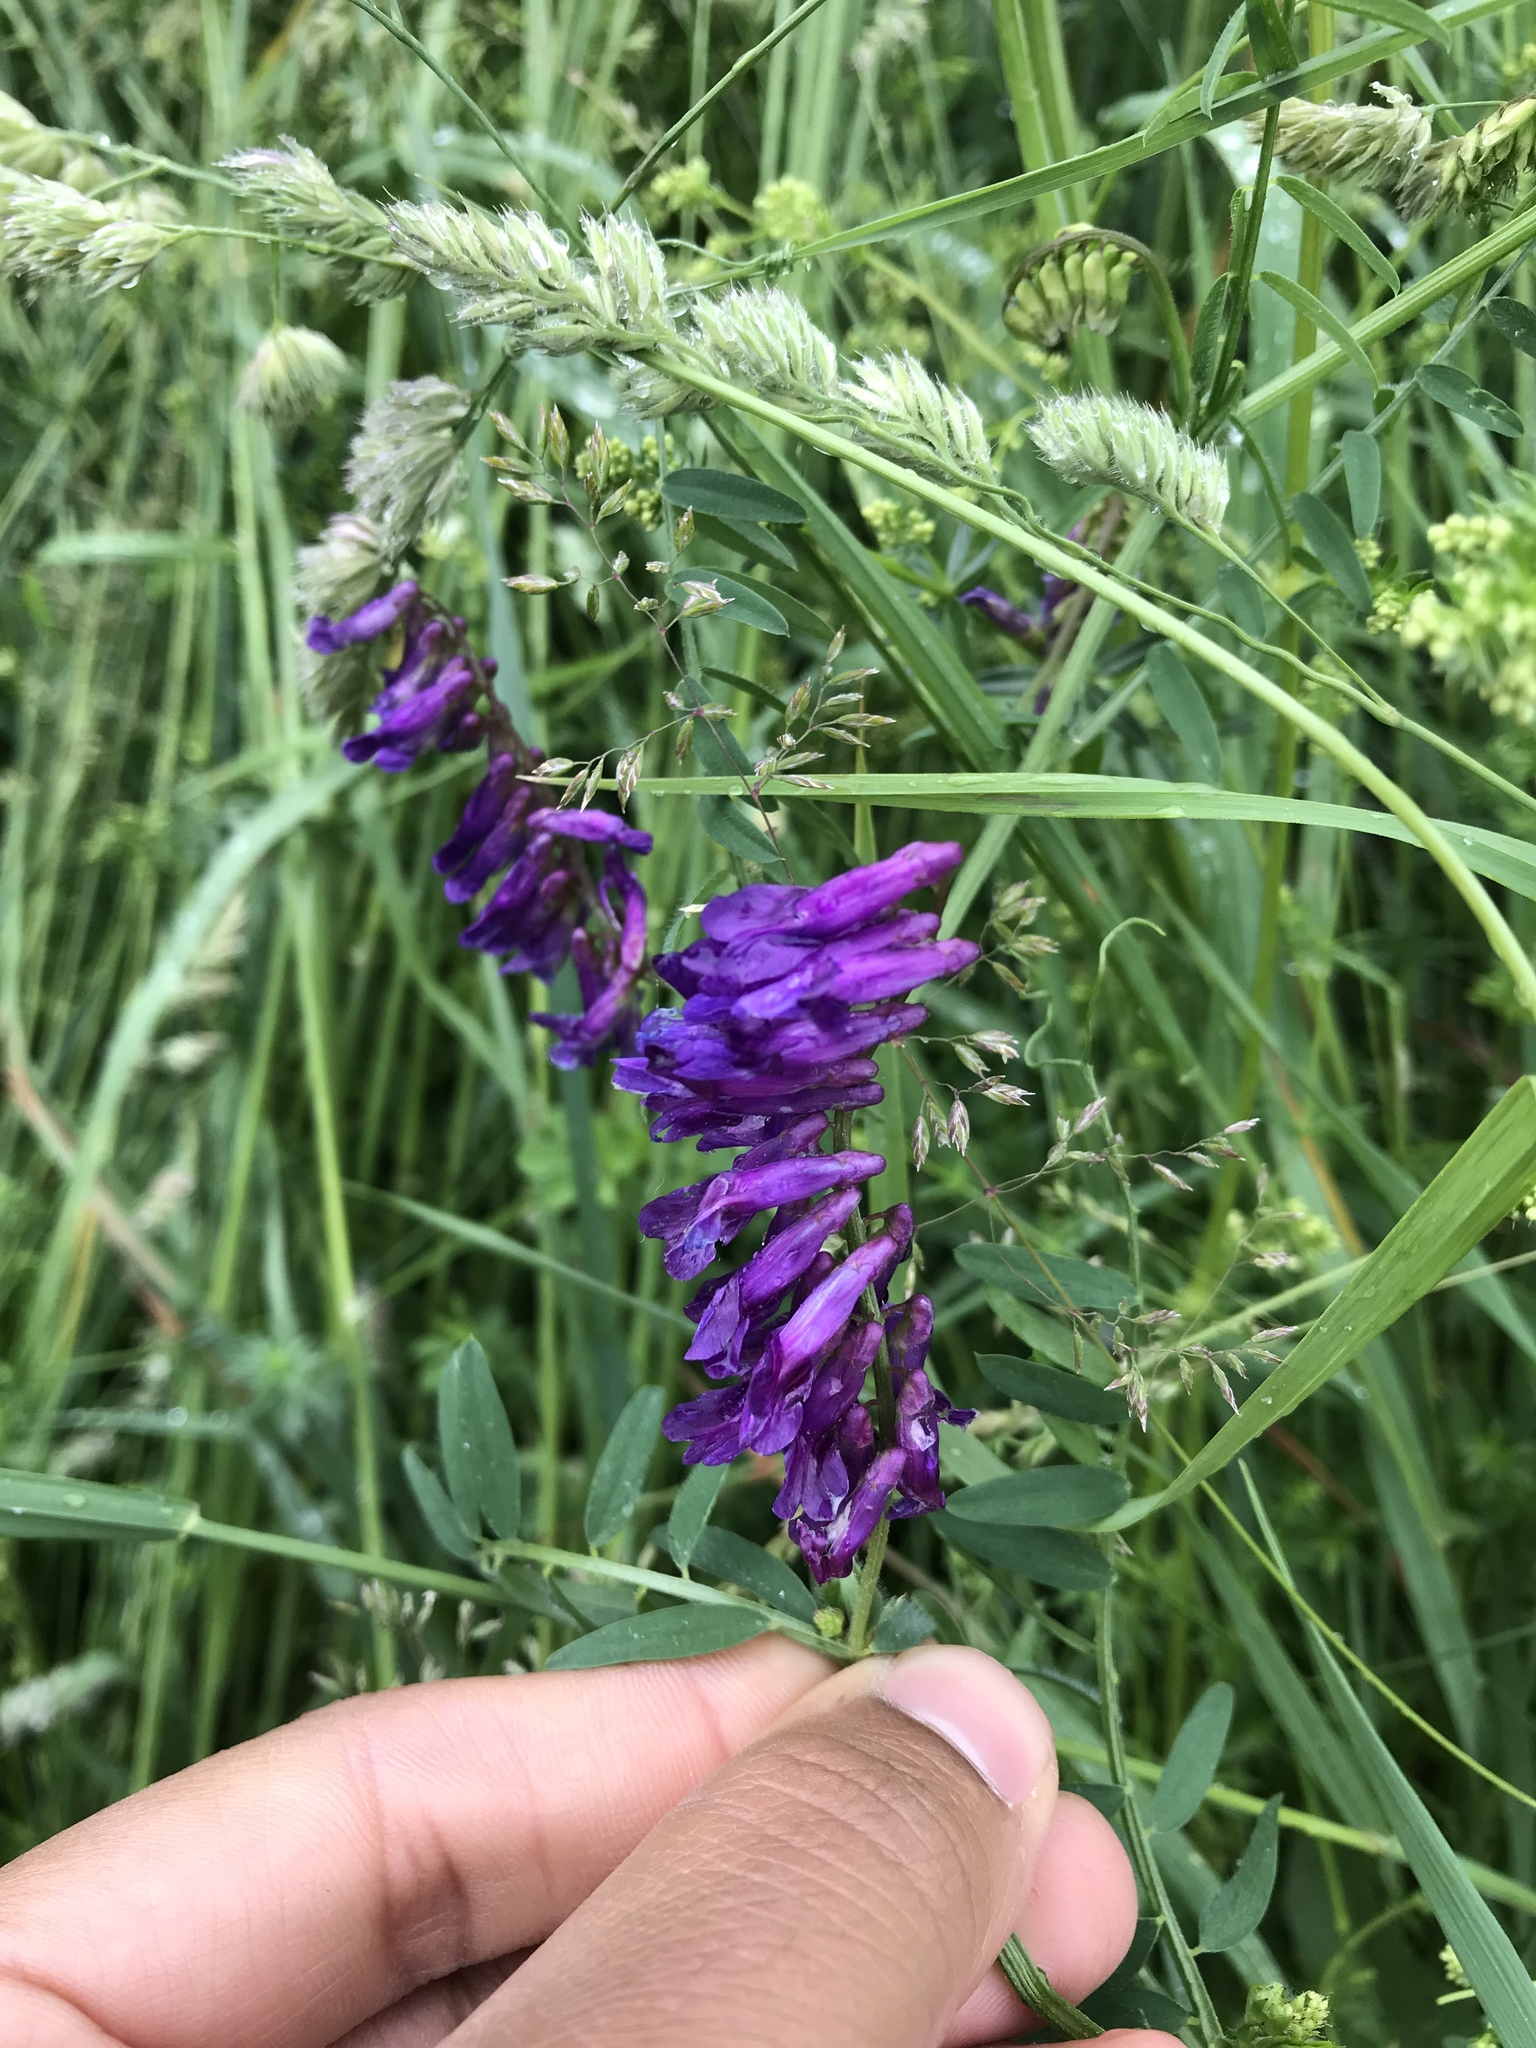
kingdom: Plantae
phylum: Tracheophyta
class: Magnoliopsida
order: Fabales
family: Fabaceae
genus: Vicia
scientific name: Vicia villosa
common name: Fodder vetch
